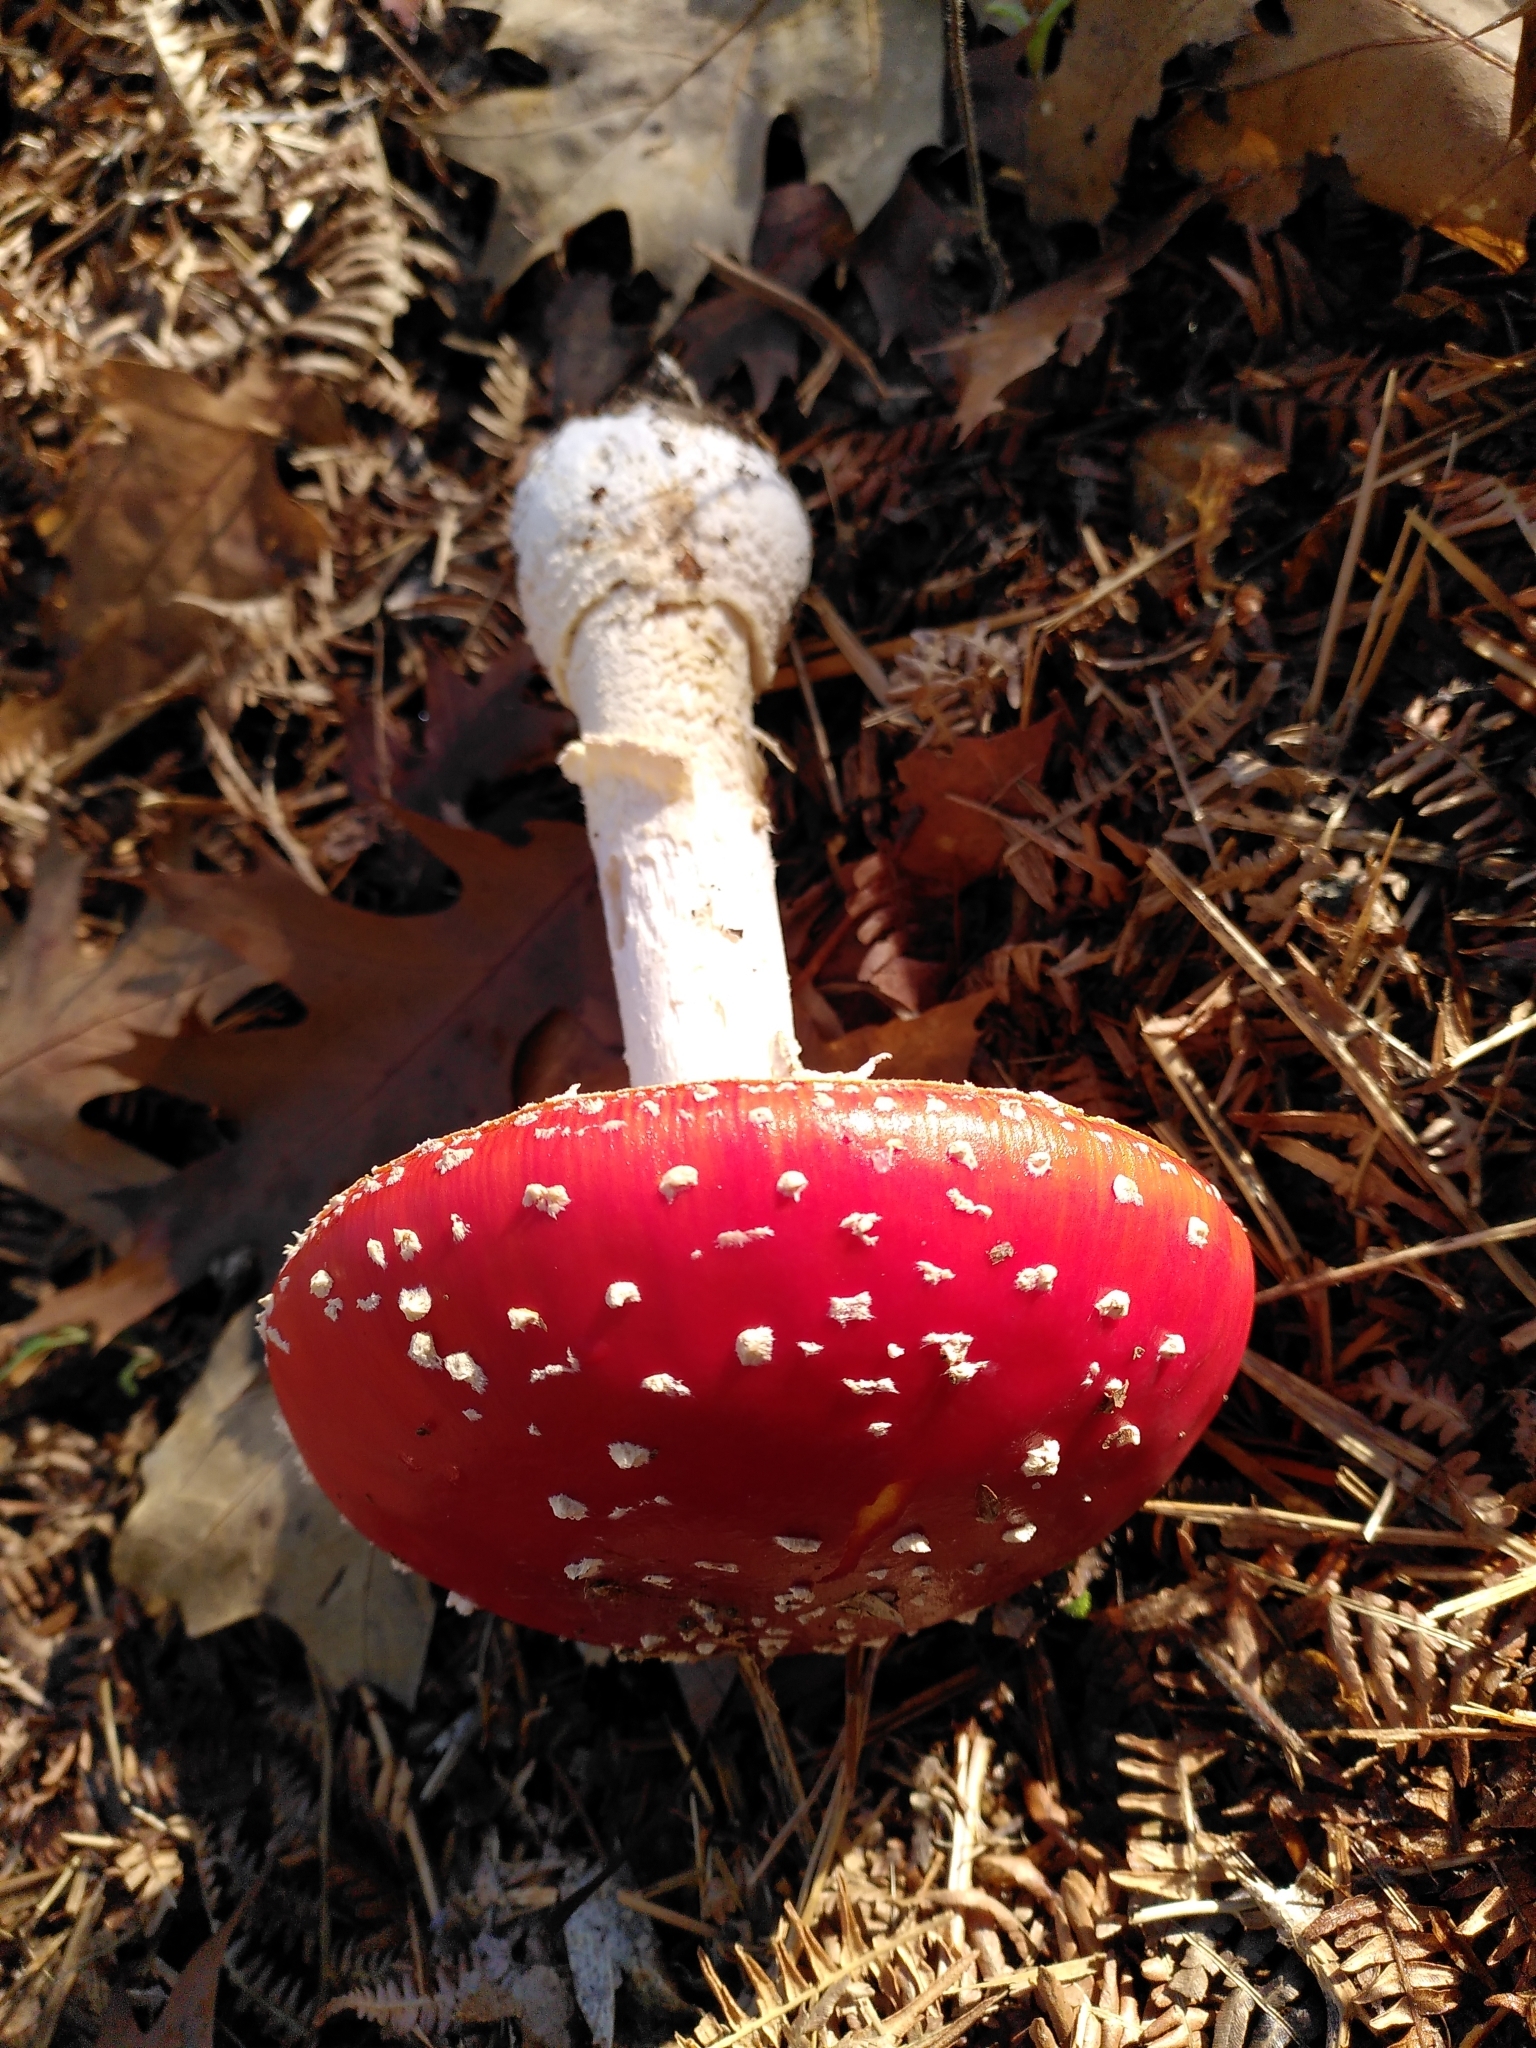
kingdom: Fungi
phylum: Basidiomycota
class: Agaricomycetes
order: Agaricales
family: Amanitaceae
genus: Amanita
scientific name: Amanita muscaria
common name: Fly agaric
